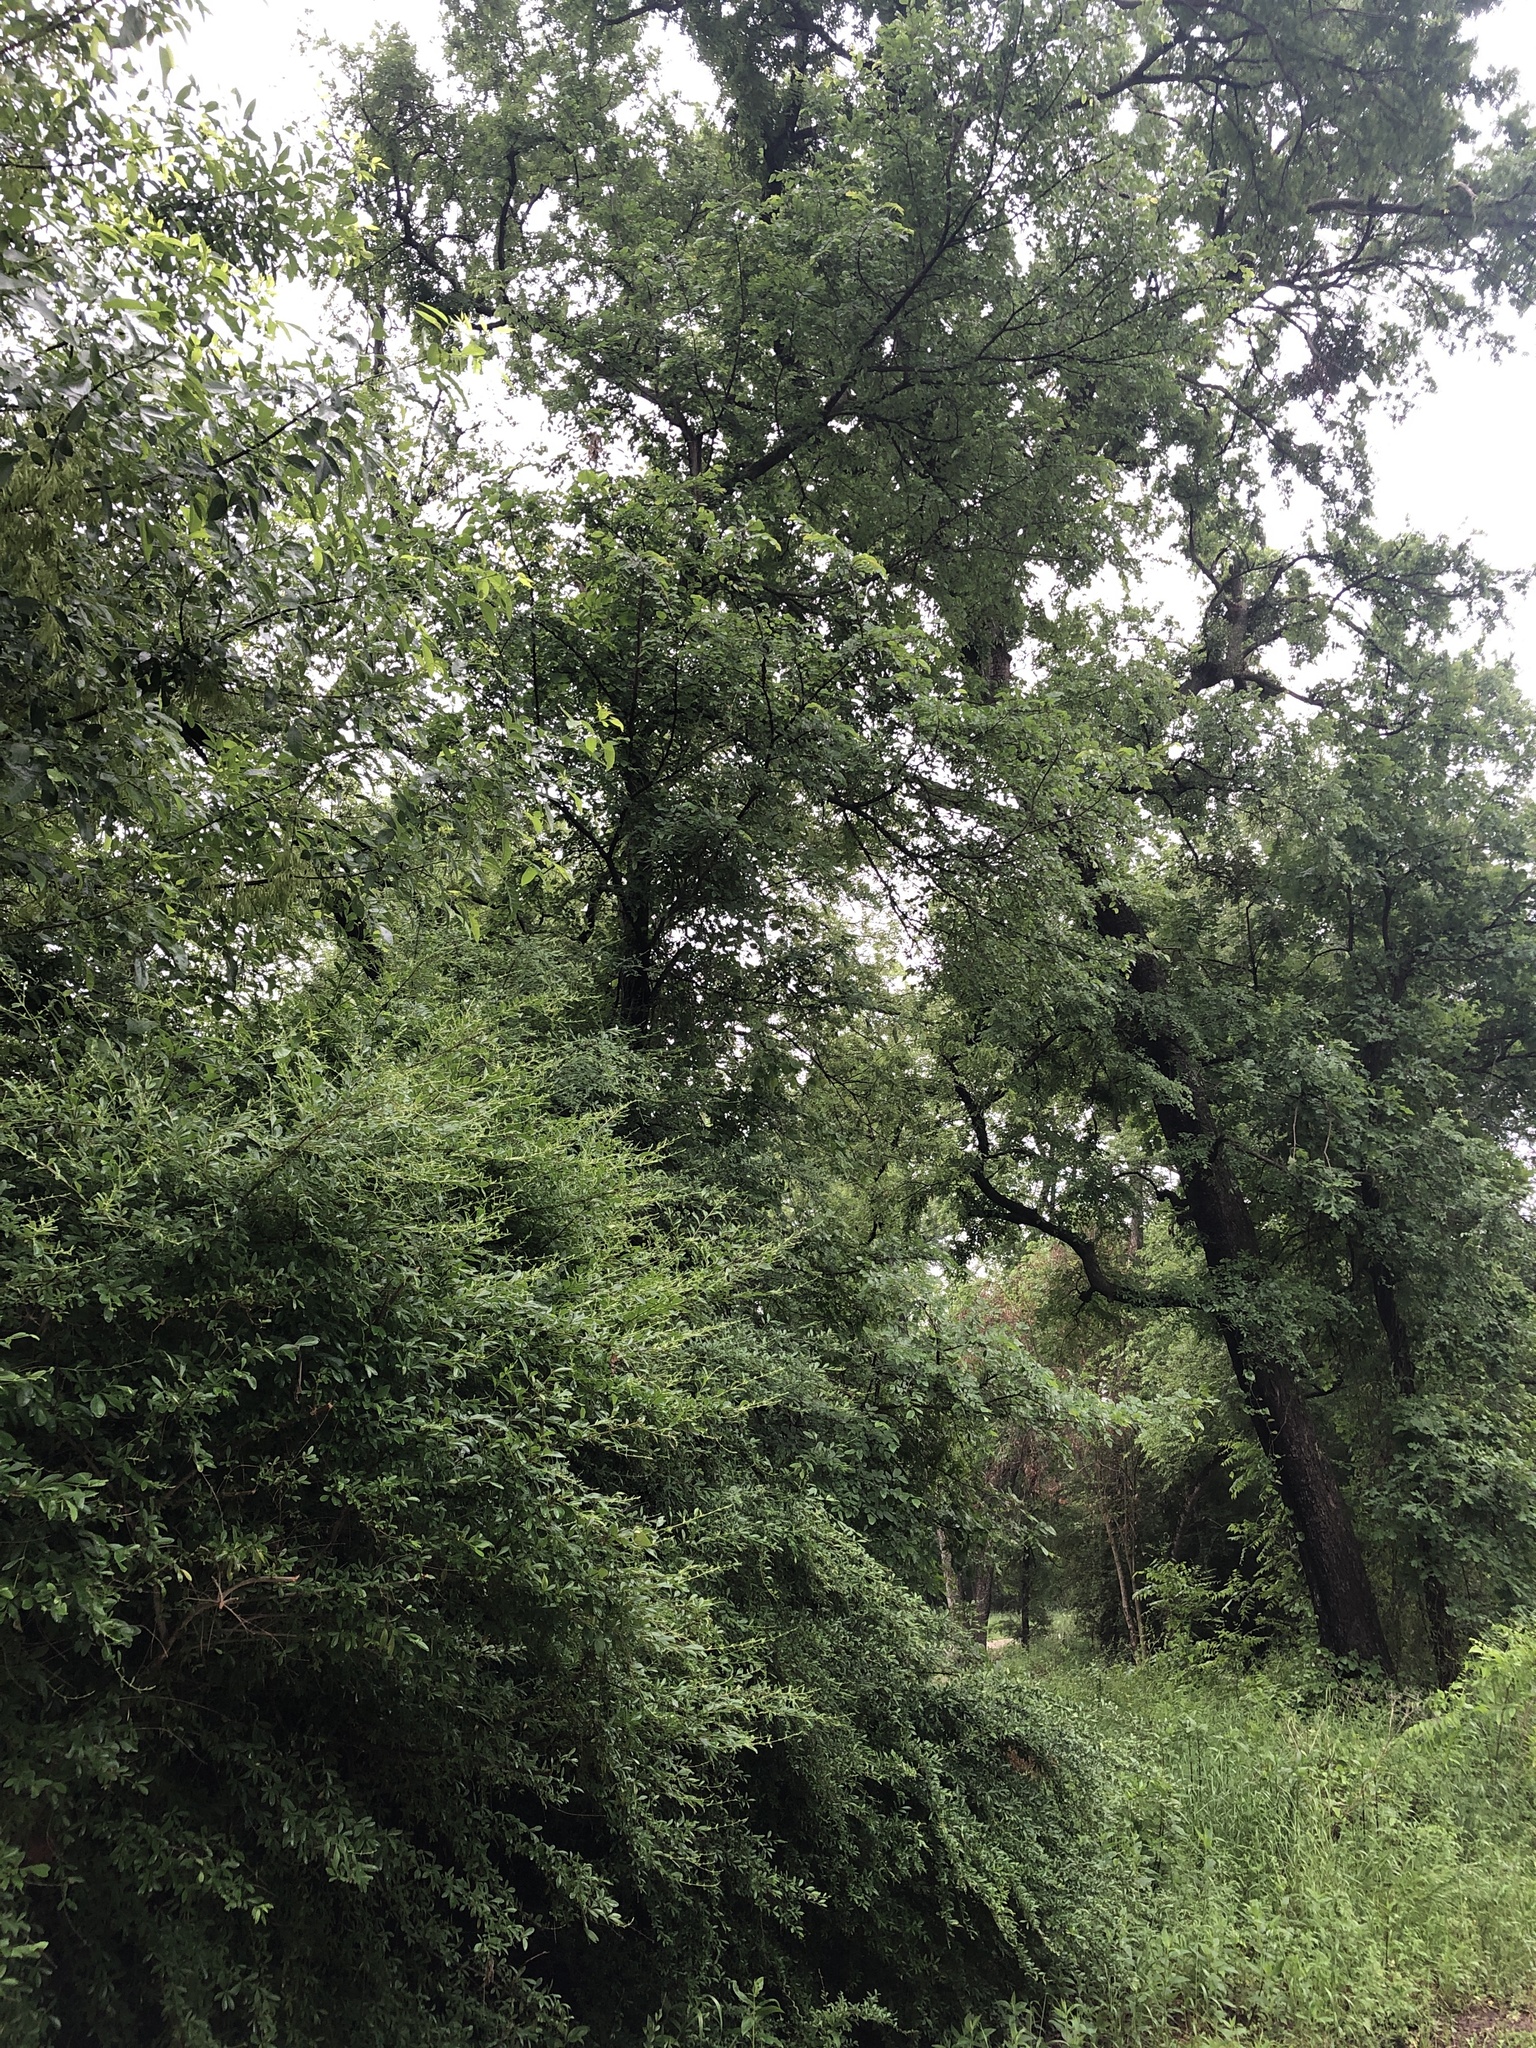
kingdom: Animalia
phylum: Chordata
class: Aves
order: Passeriformes
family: Paridae
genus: Baeolophus
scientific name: Baeolophus bicolor
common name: Tufted titmouse
